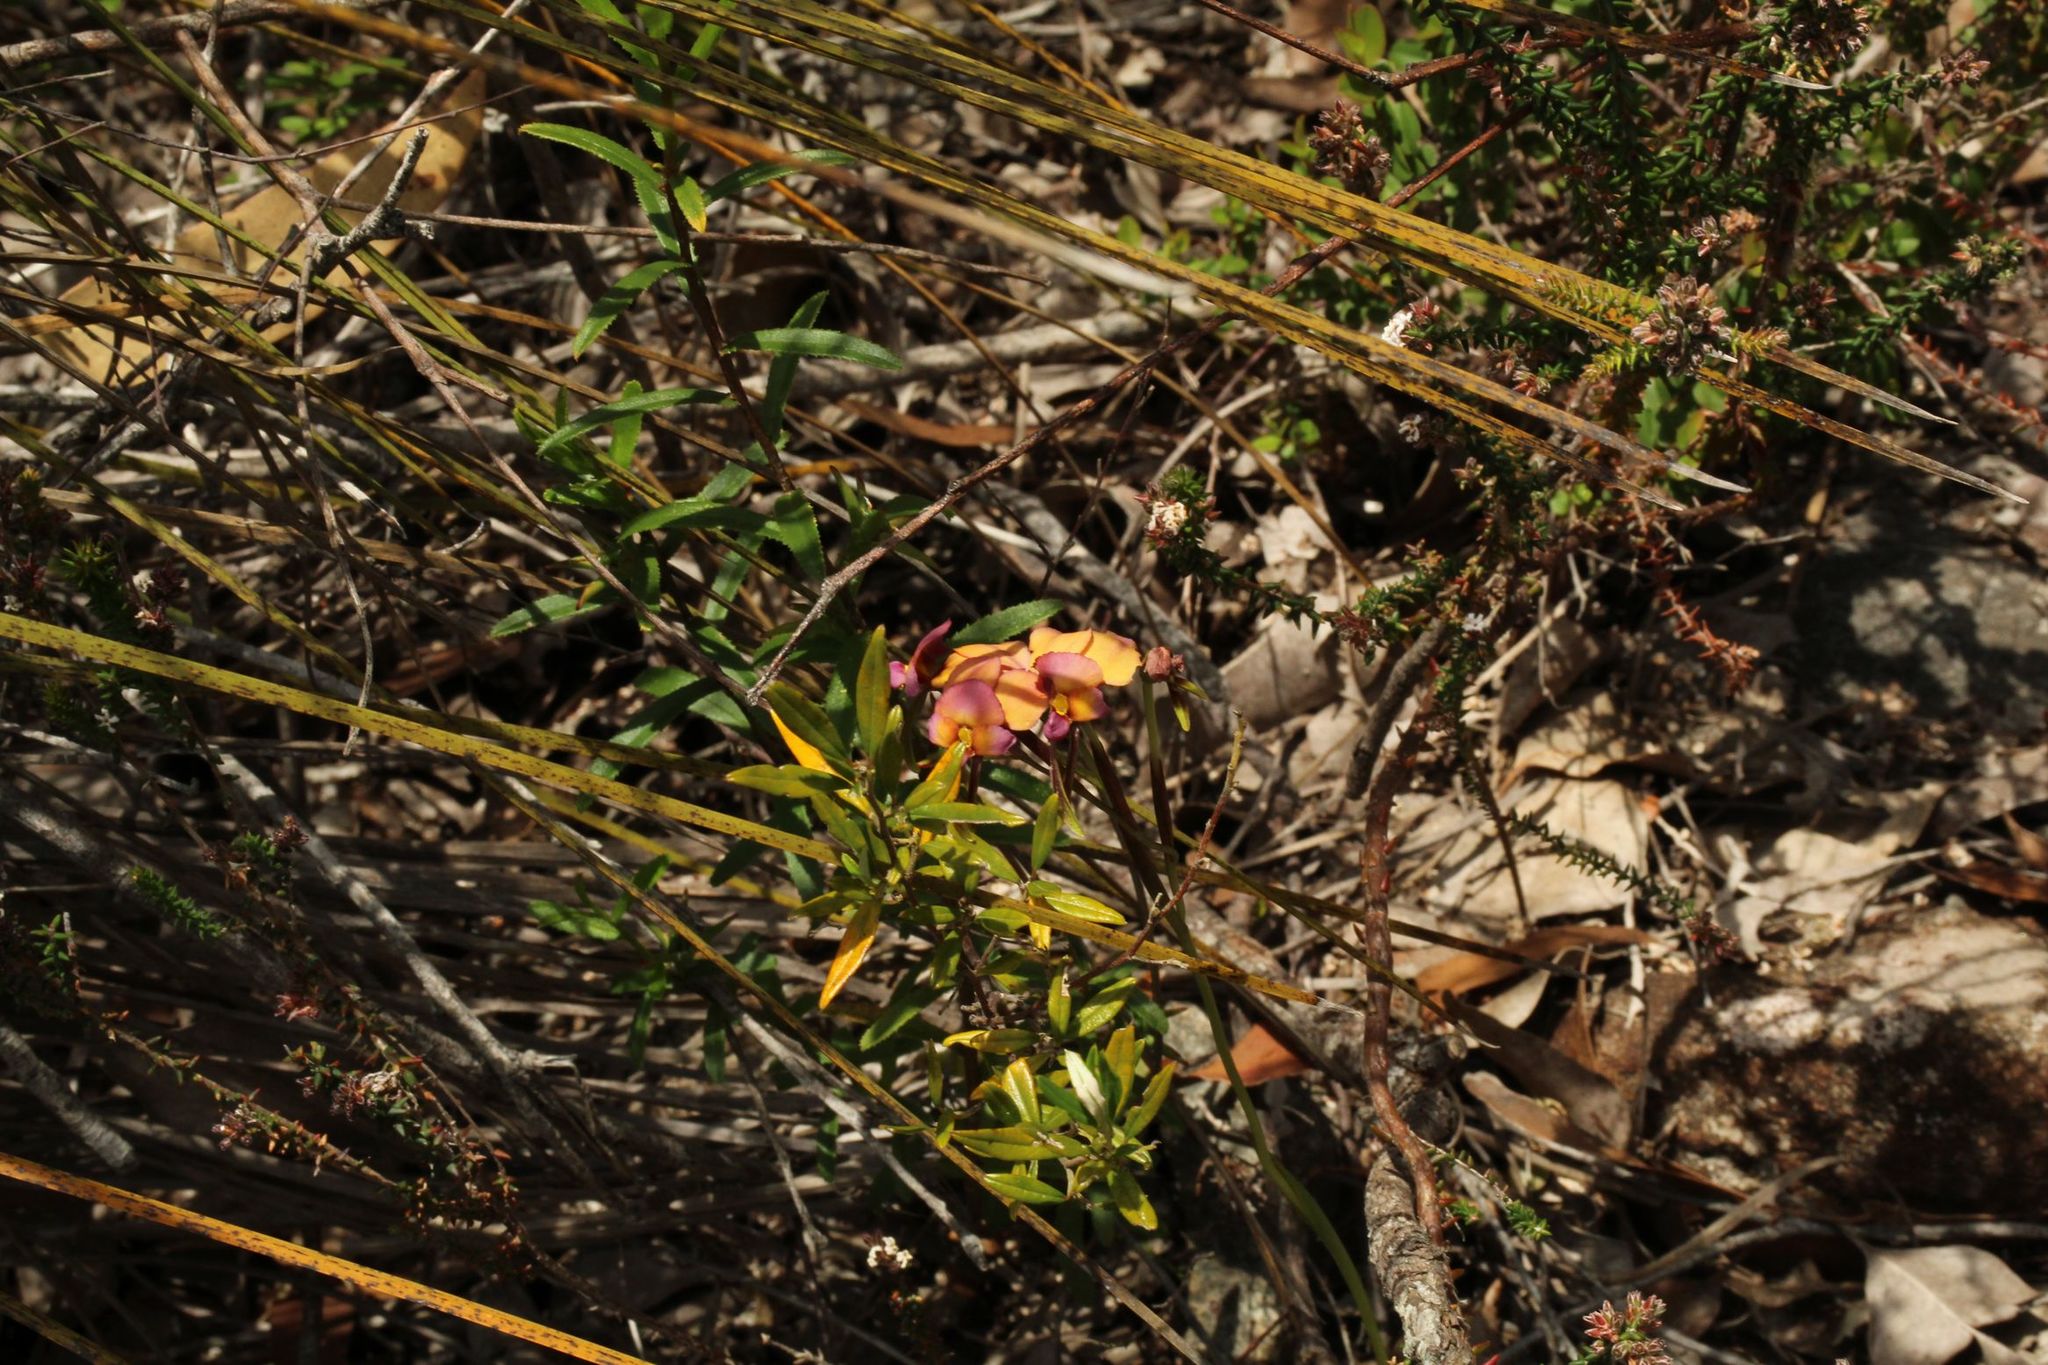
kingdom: Plantae
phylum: Tracheophyta
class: Liliopsida
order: Asparagales
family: Orchidaceae
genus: Diuris
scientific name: Diuris longifolia
